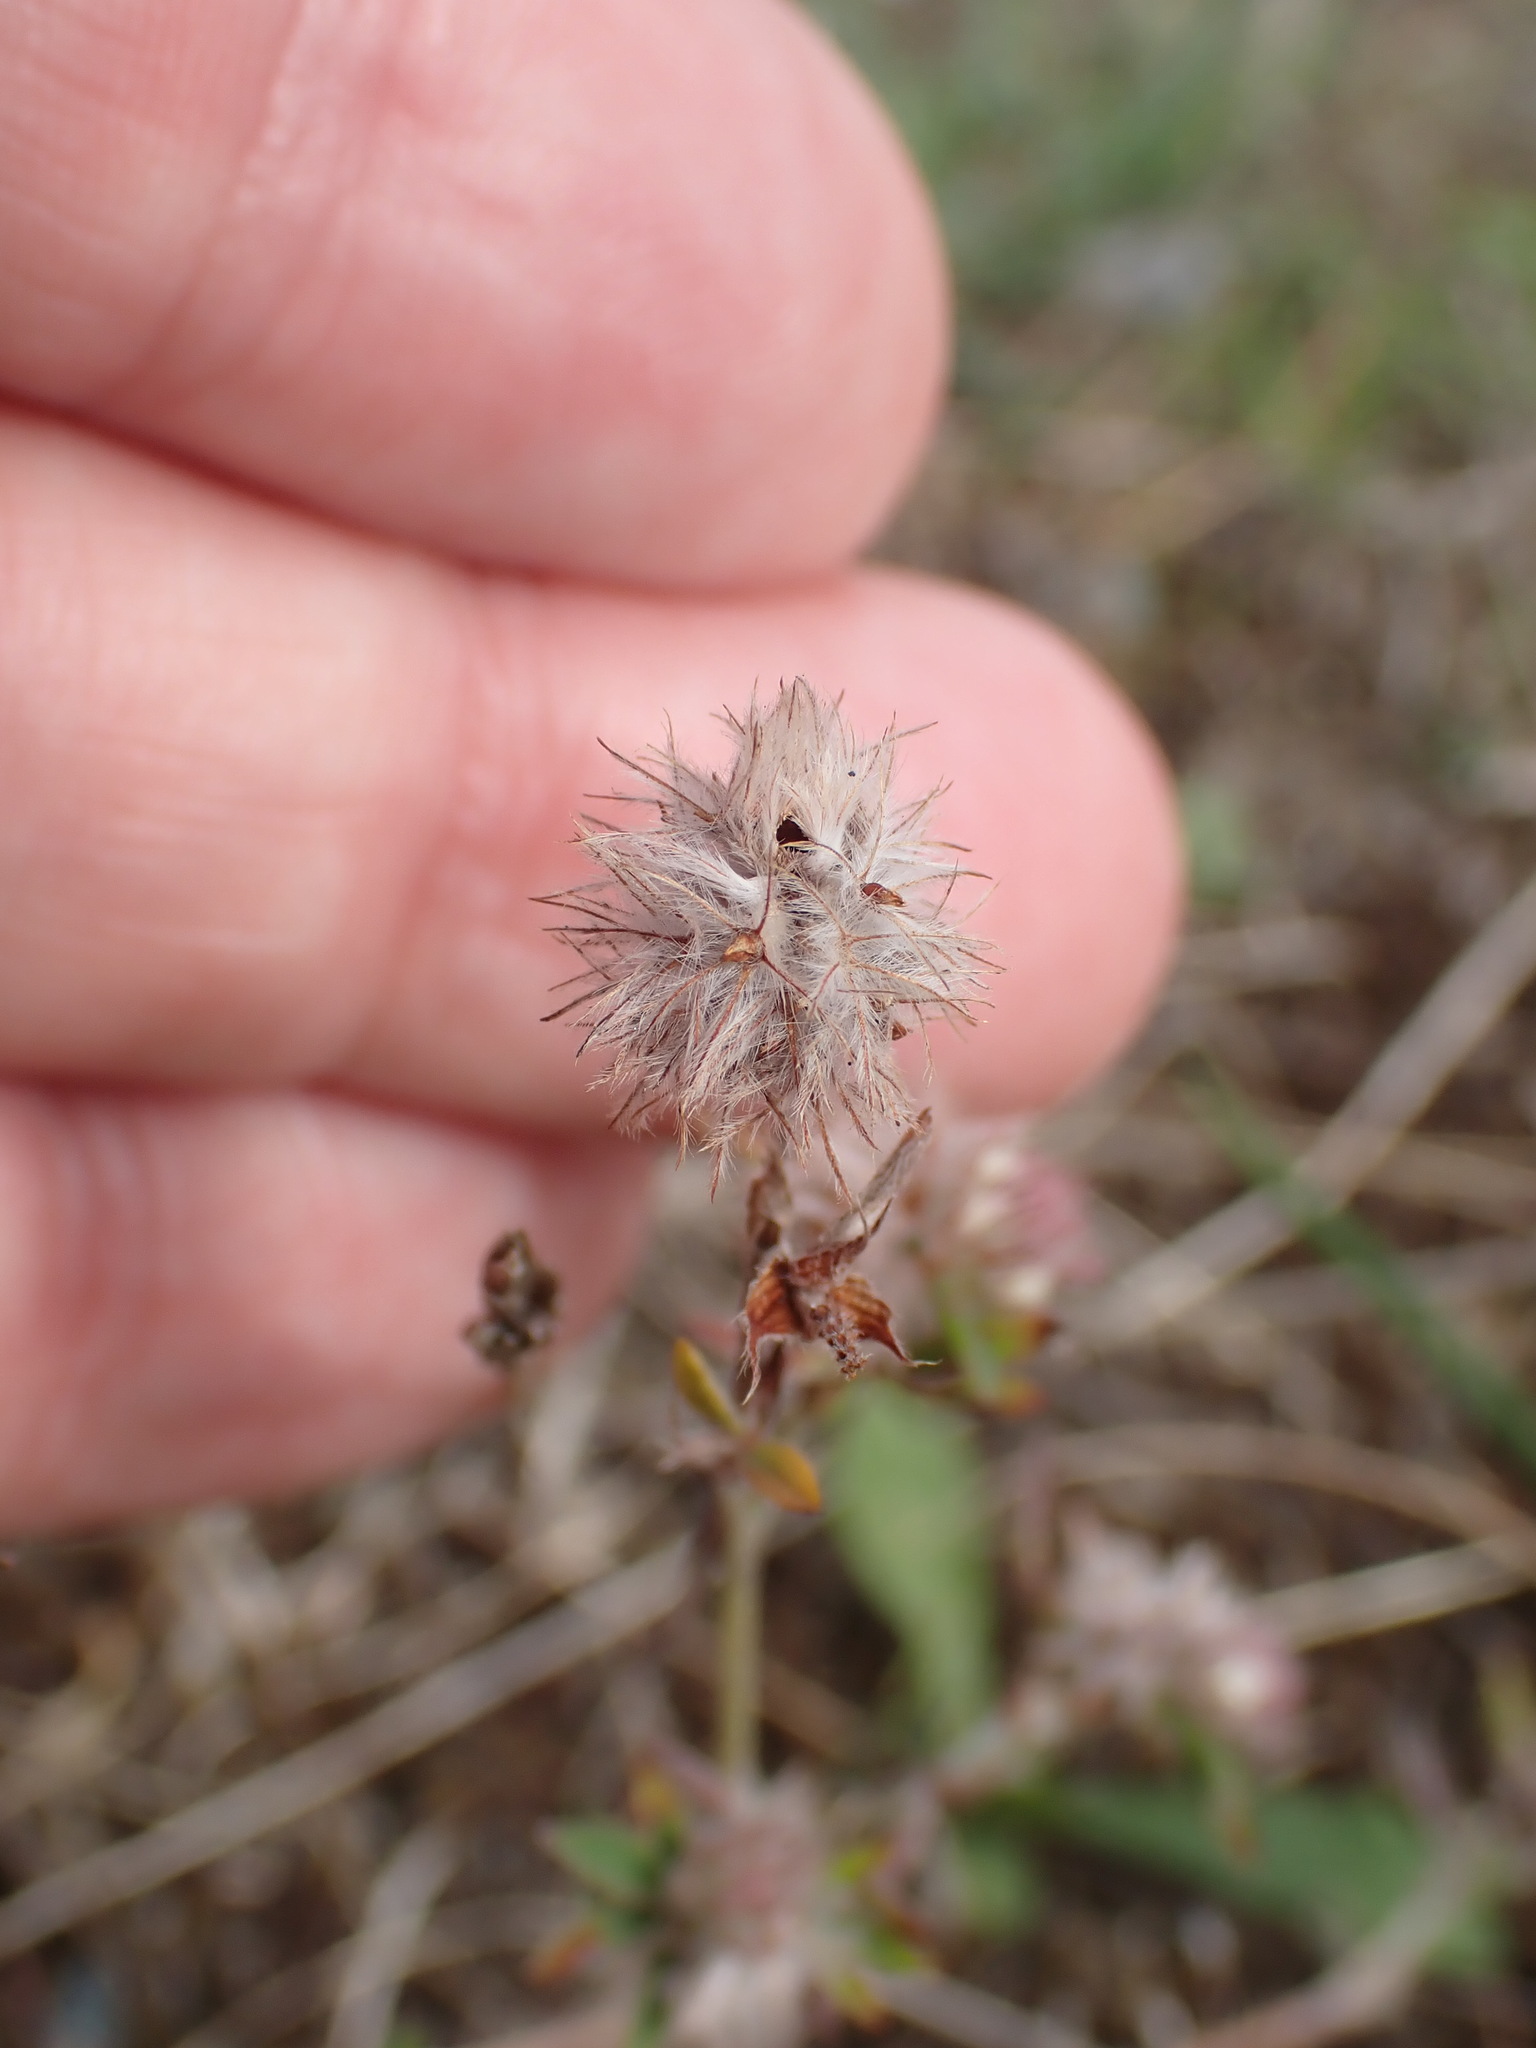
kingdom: Plantae
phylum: Tracheophyta
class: Magnoliopsida
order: Fabales
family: Fabaceae
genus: Trifolium
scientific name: Trifolium arvense
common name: Hare's-foot clover
